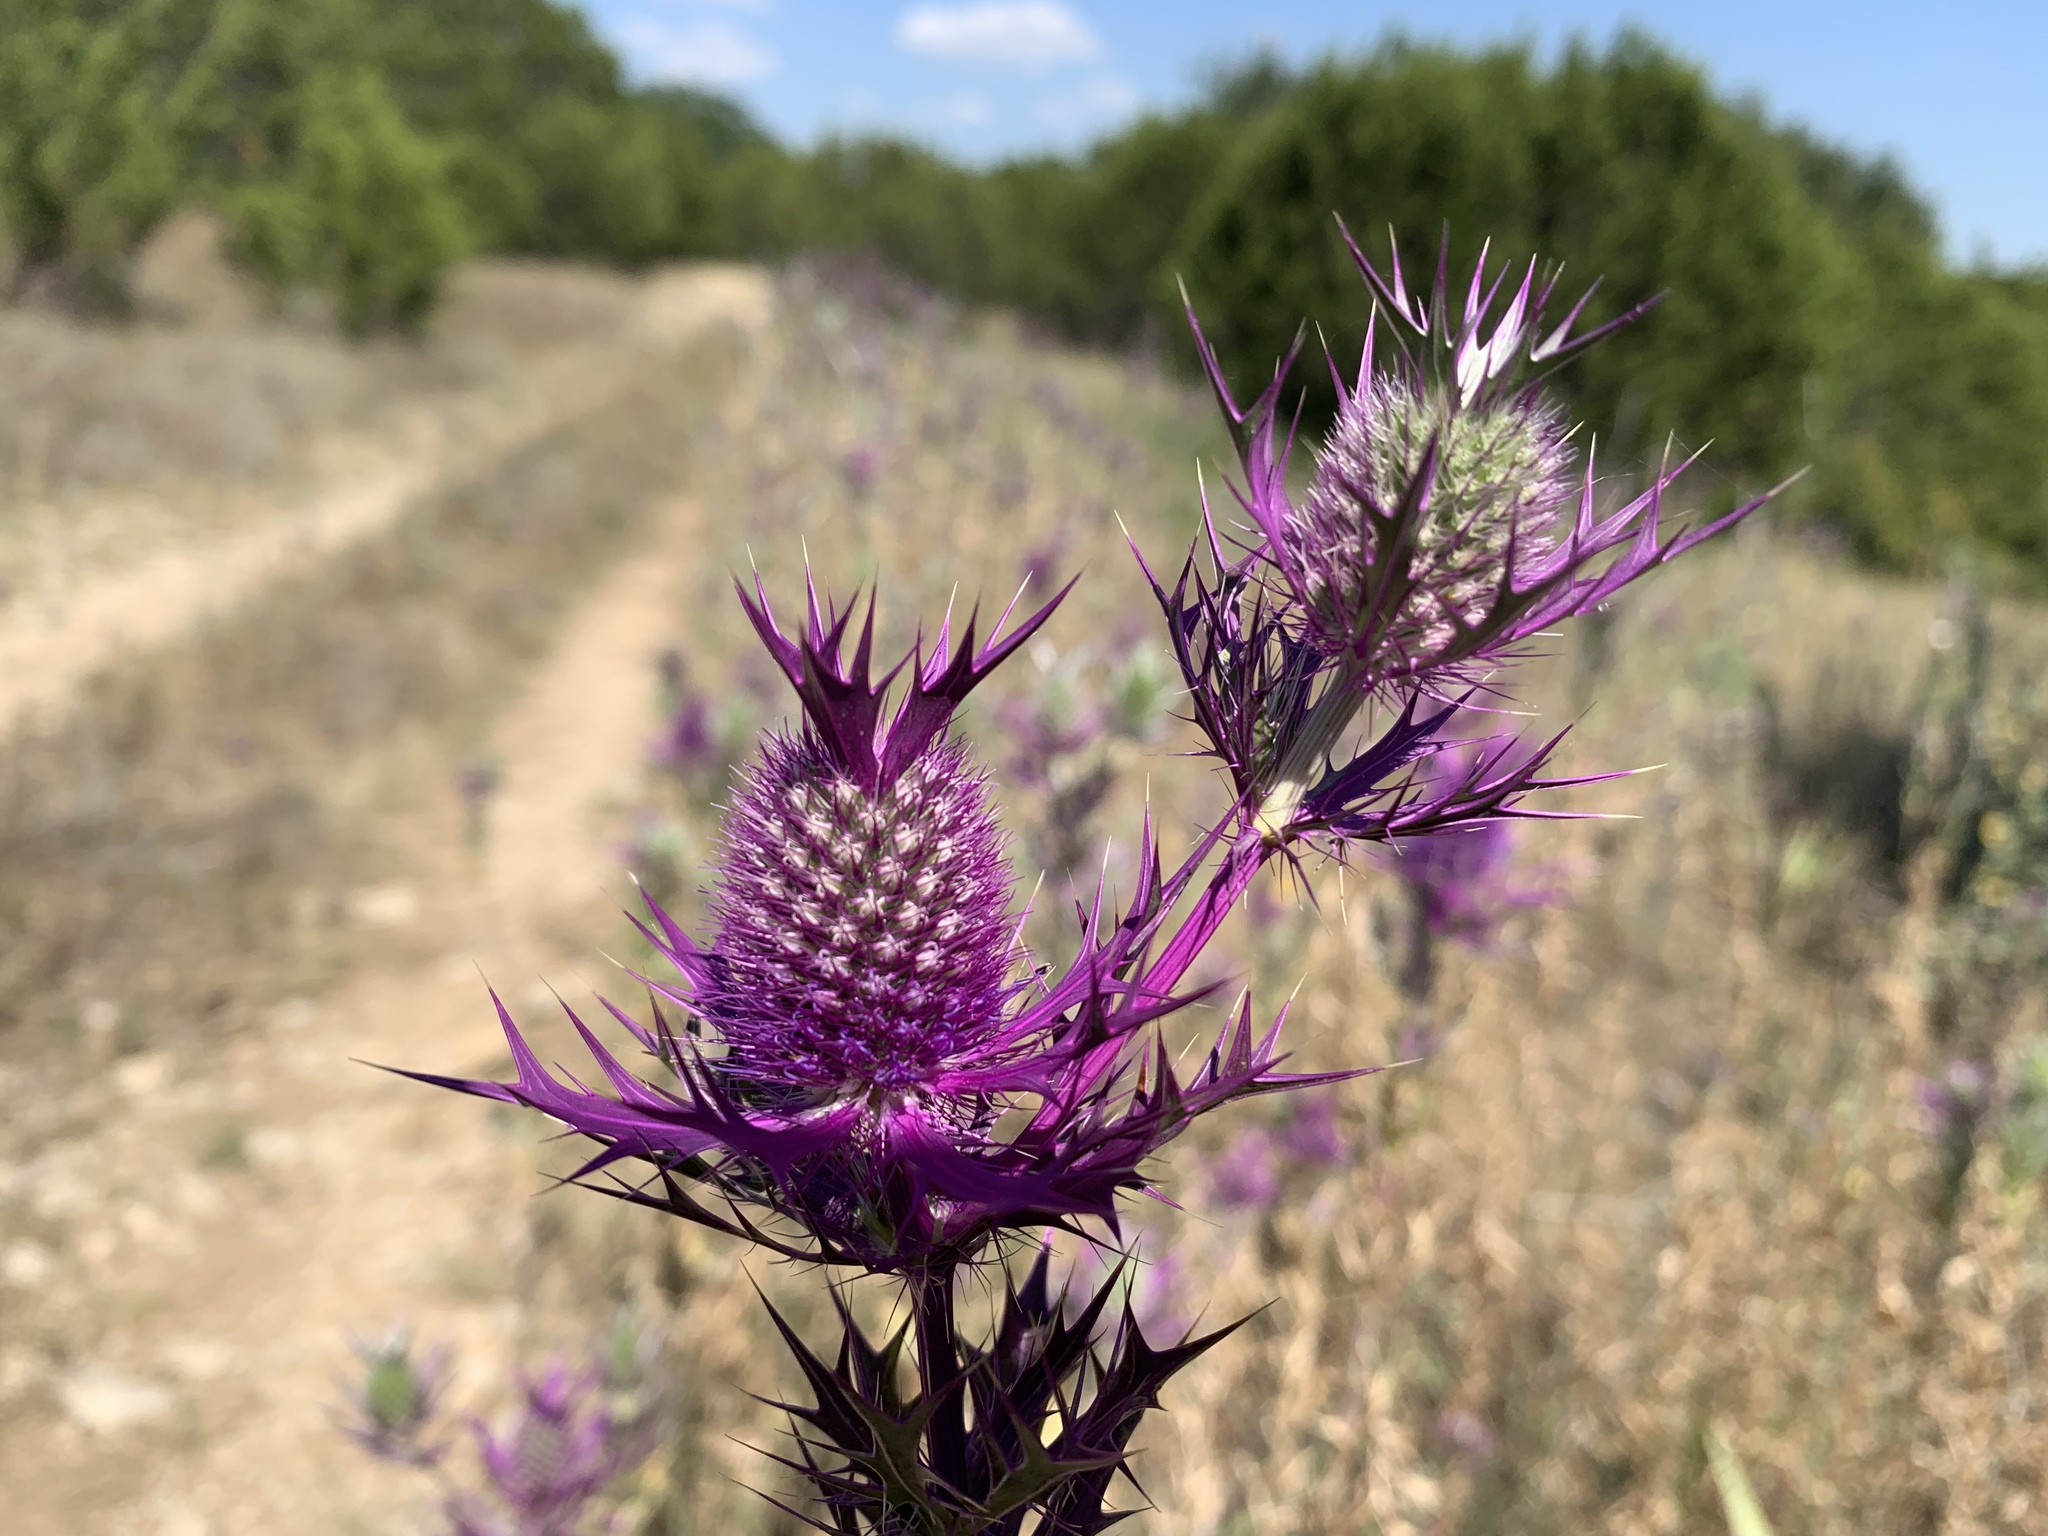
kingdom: Plantae
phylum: Tracheophyta
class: Magnoliopsida
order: Apiales
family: Apiaceae
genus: Eryngium
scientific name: Eryngium leavenworthii
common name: Leavenworth's eryngo
